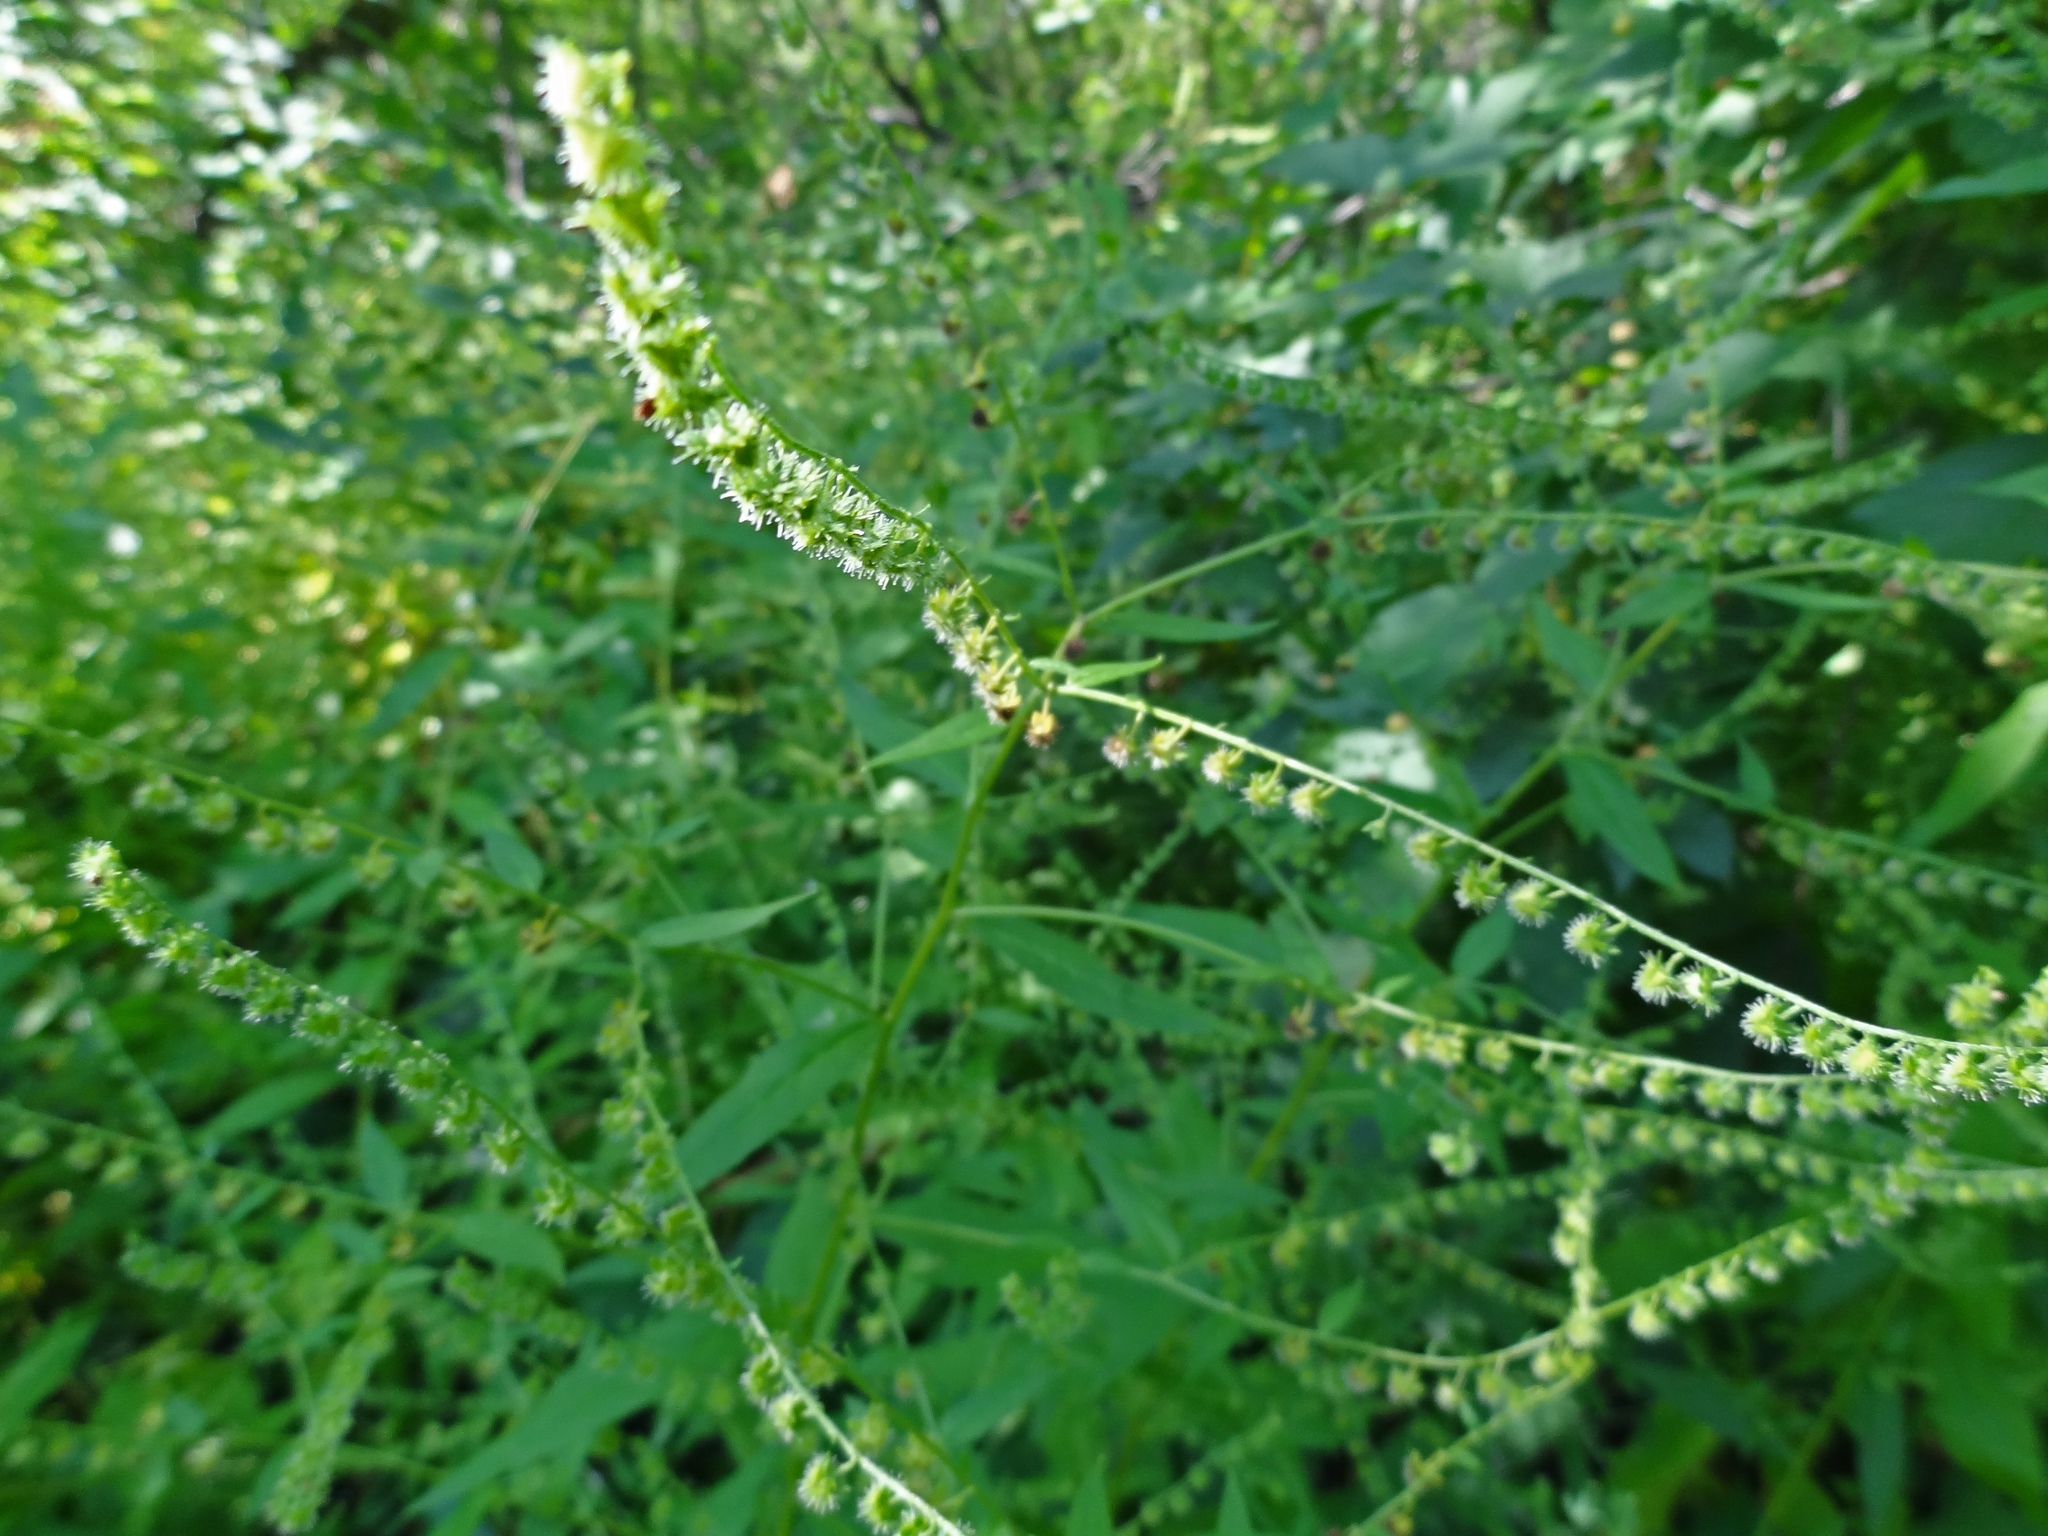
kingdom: Plantae
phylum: Tracheophyta
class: Magnoliopsida
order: Boraginales
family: Boraginaceae
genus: Hackelia
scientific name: Hackelia deflexa
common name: Nodding stickseed
